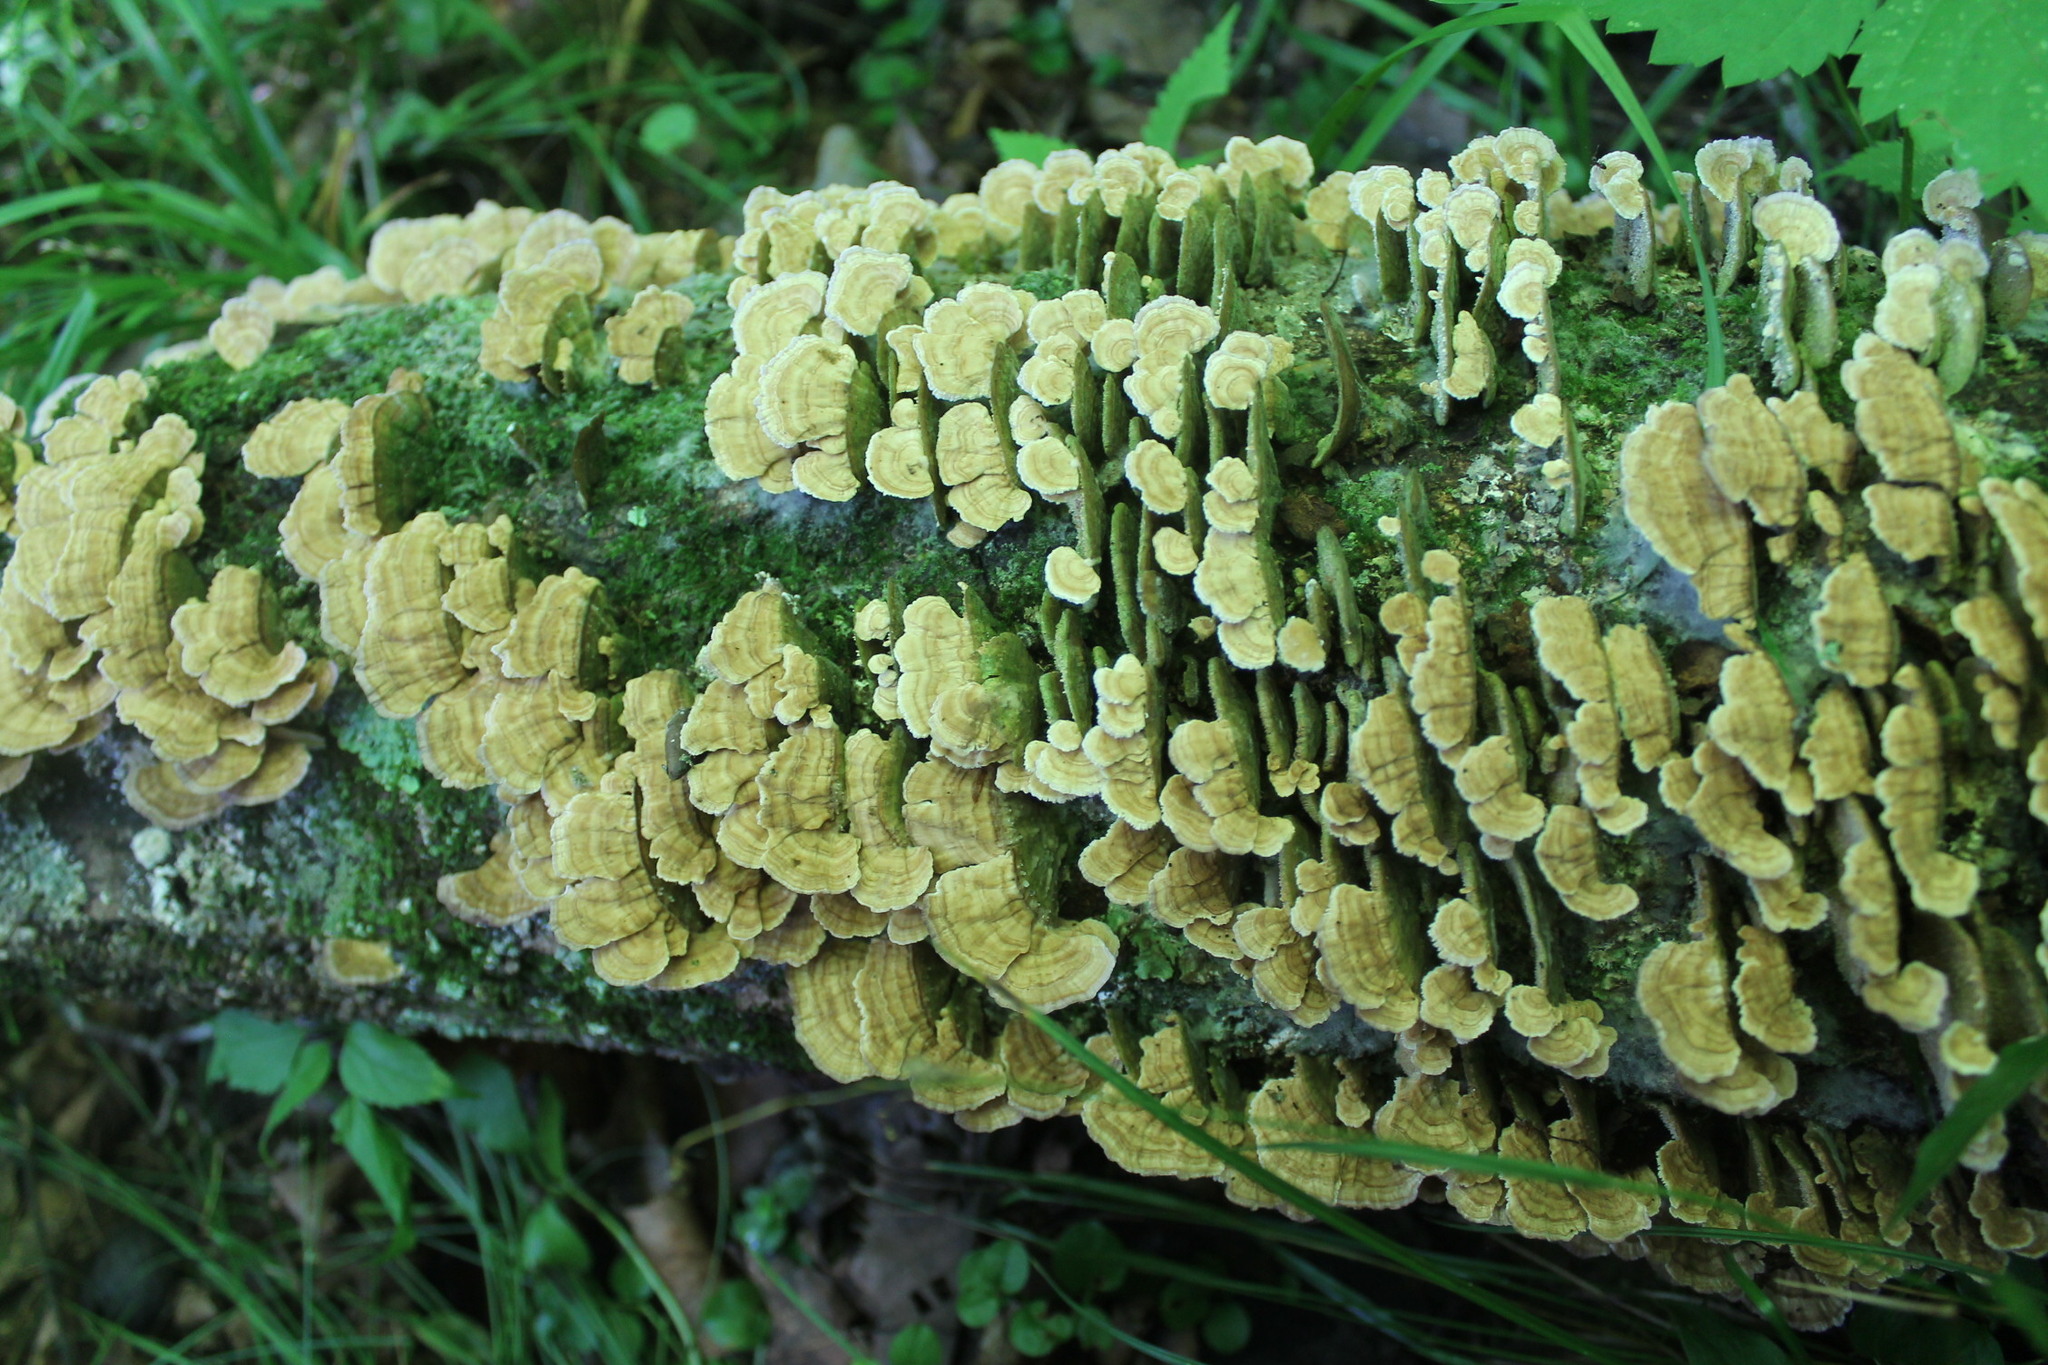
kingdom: Fungi
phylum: Basidiomycota
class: Agaricomycetes
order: Hymenochaetales
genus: Trichaptum
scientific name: Trichaptum biforme
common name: Violet-toothed polypore
